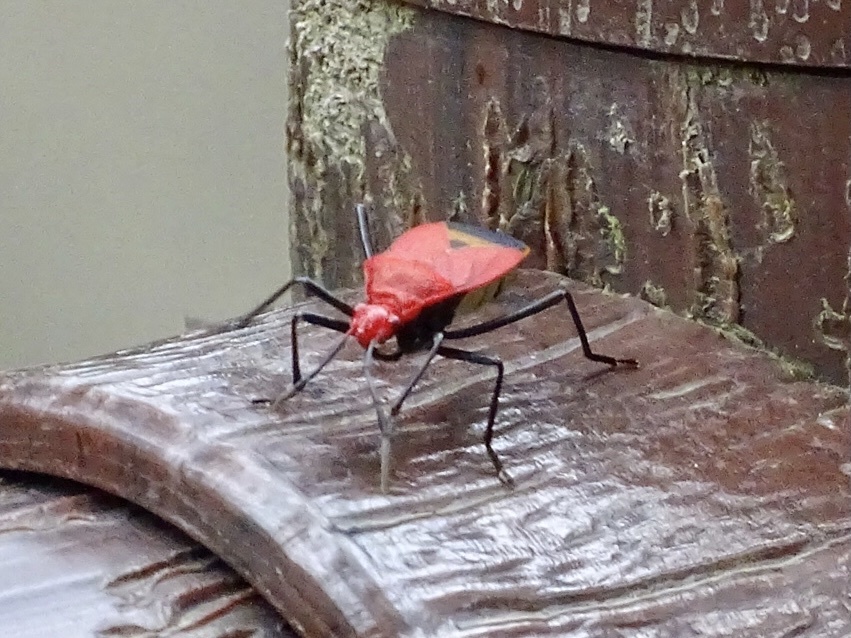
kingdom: Animalia
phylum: Arthropoda
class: Insecta
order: Hemiptera
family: Pyrrhocoridae
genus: Dindymus
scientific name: Dindymus
